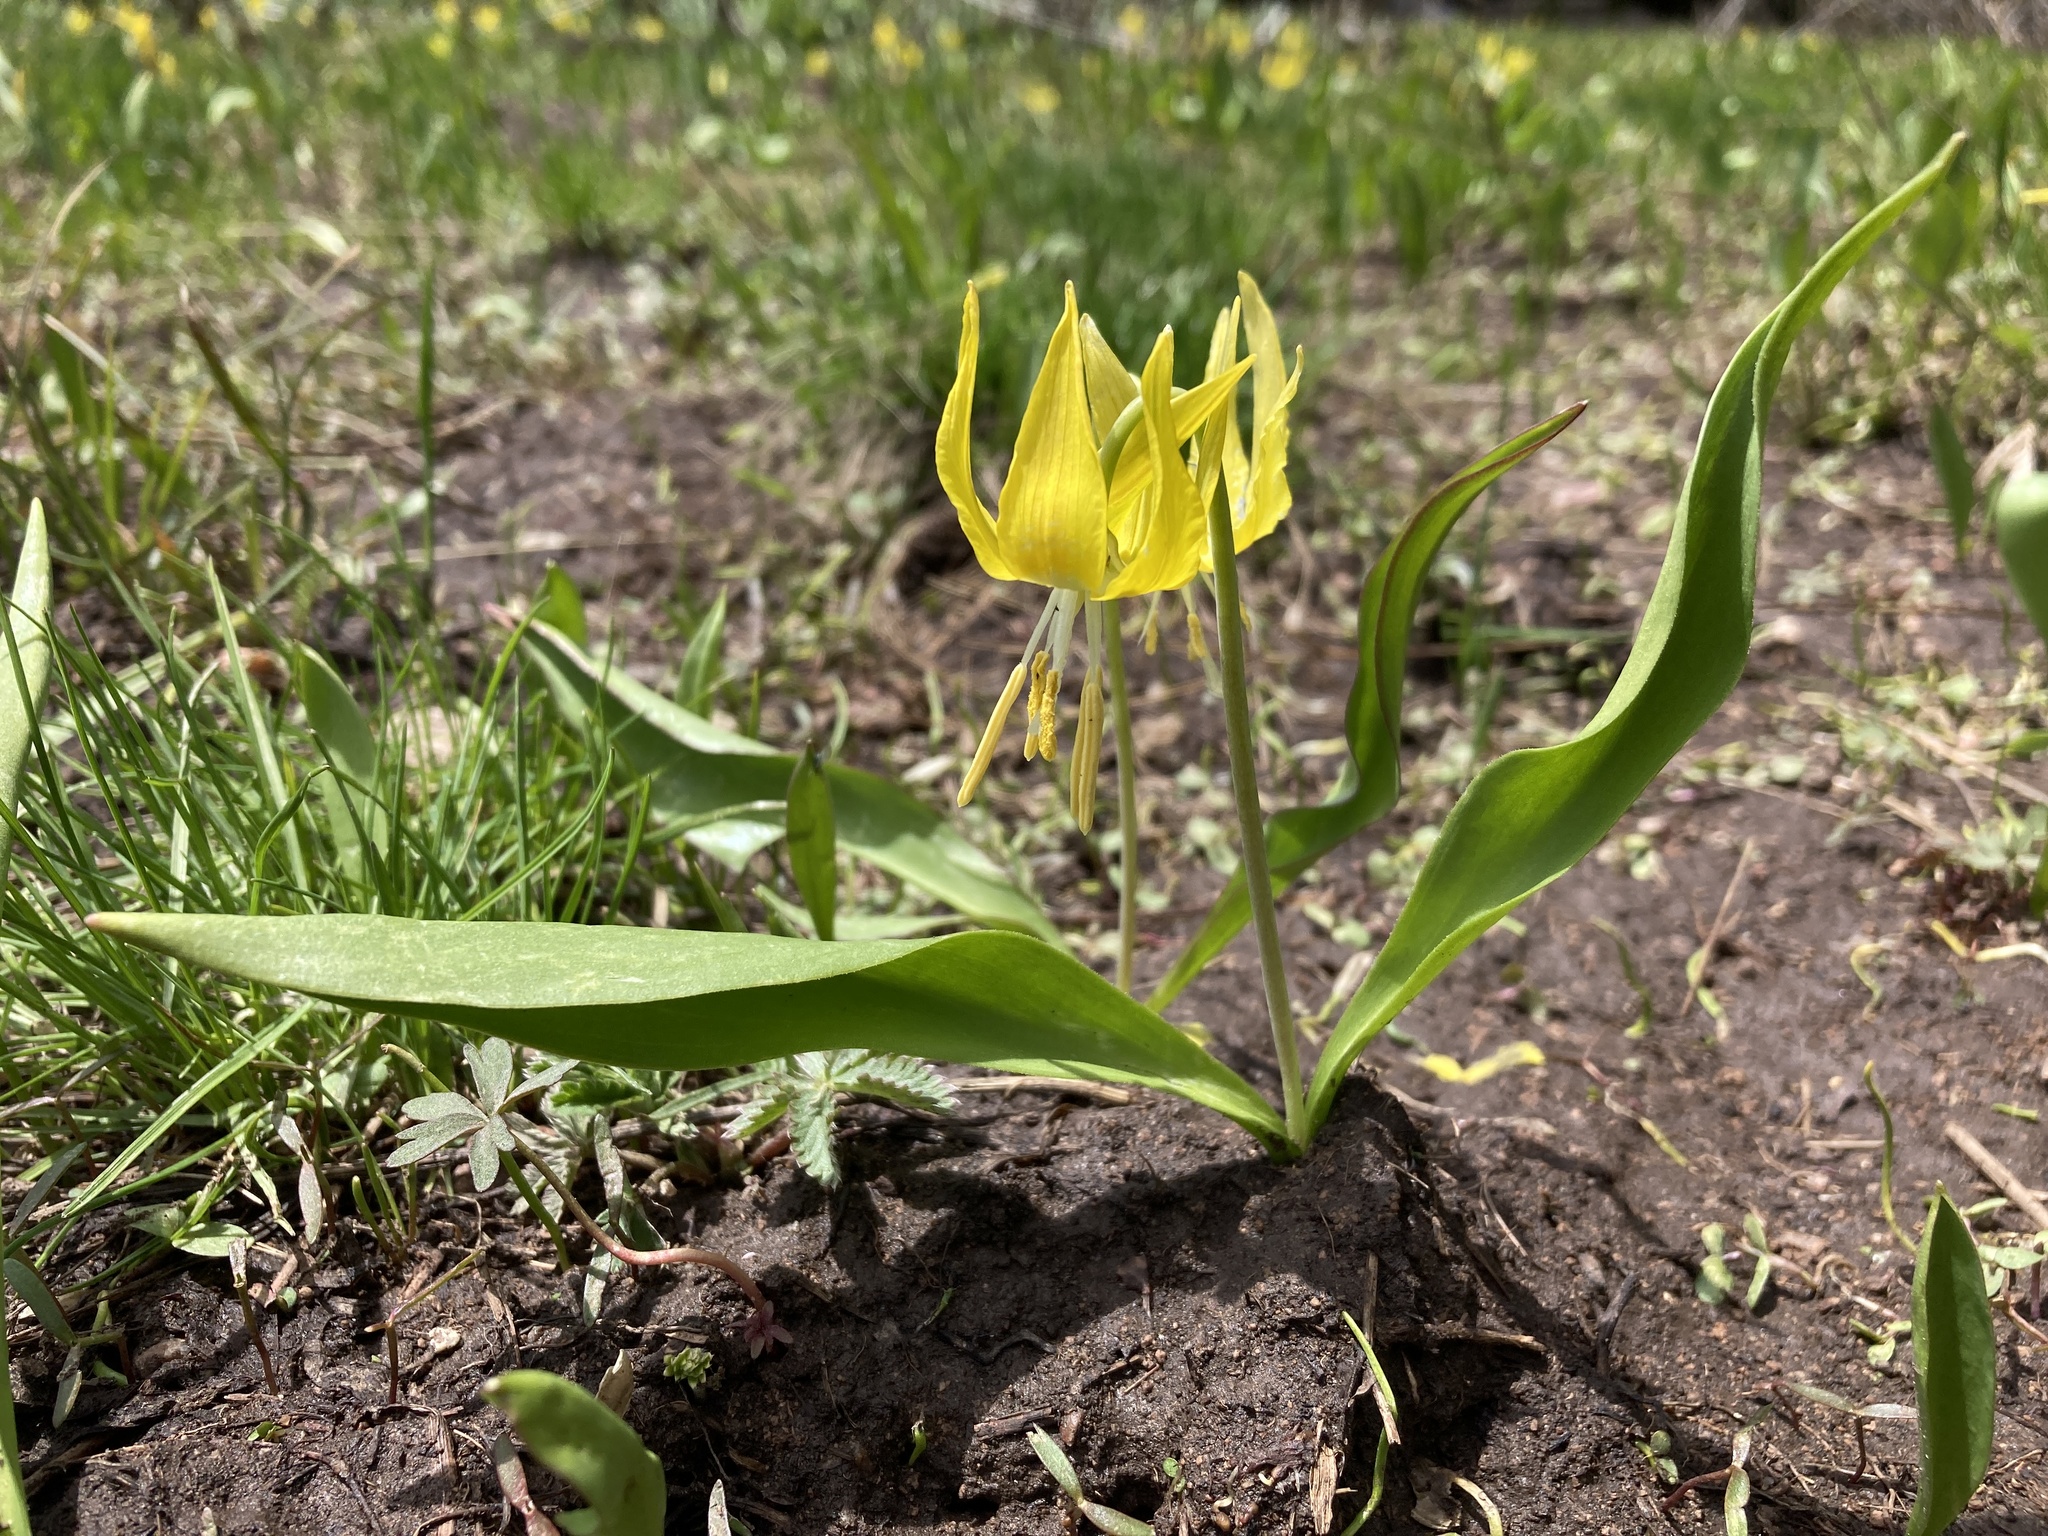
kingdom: Plantae
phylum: Tracheophyta
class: Liliopsida
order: Liliales
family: Liliaceae
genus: Erythronium
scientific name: Erythronium grandiflorum
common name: Avalanche-lily
